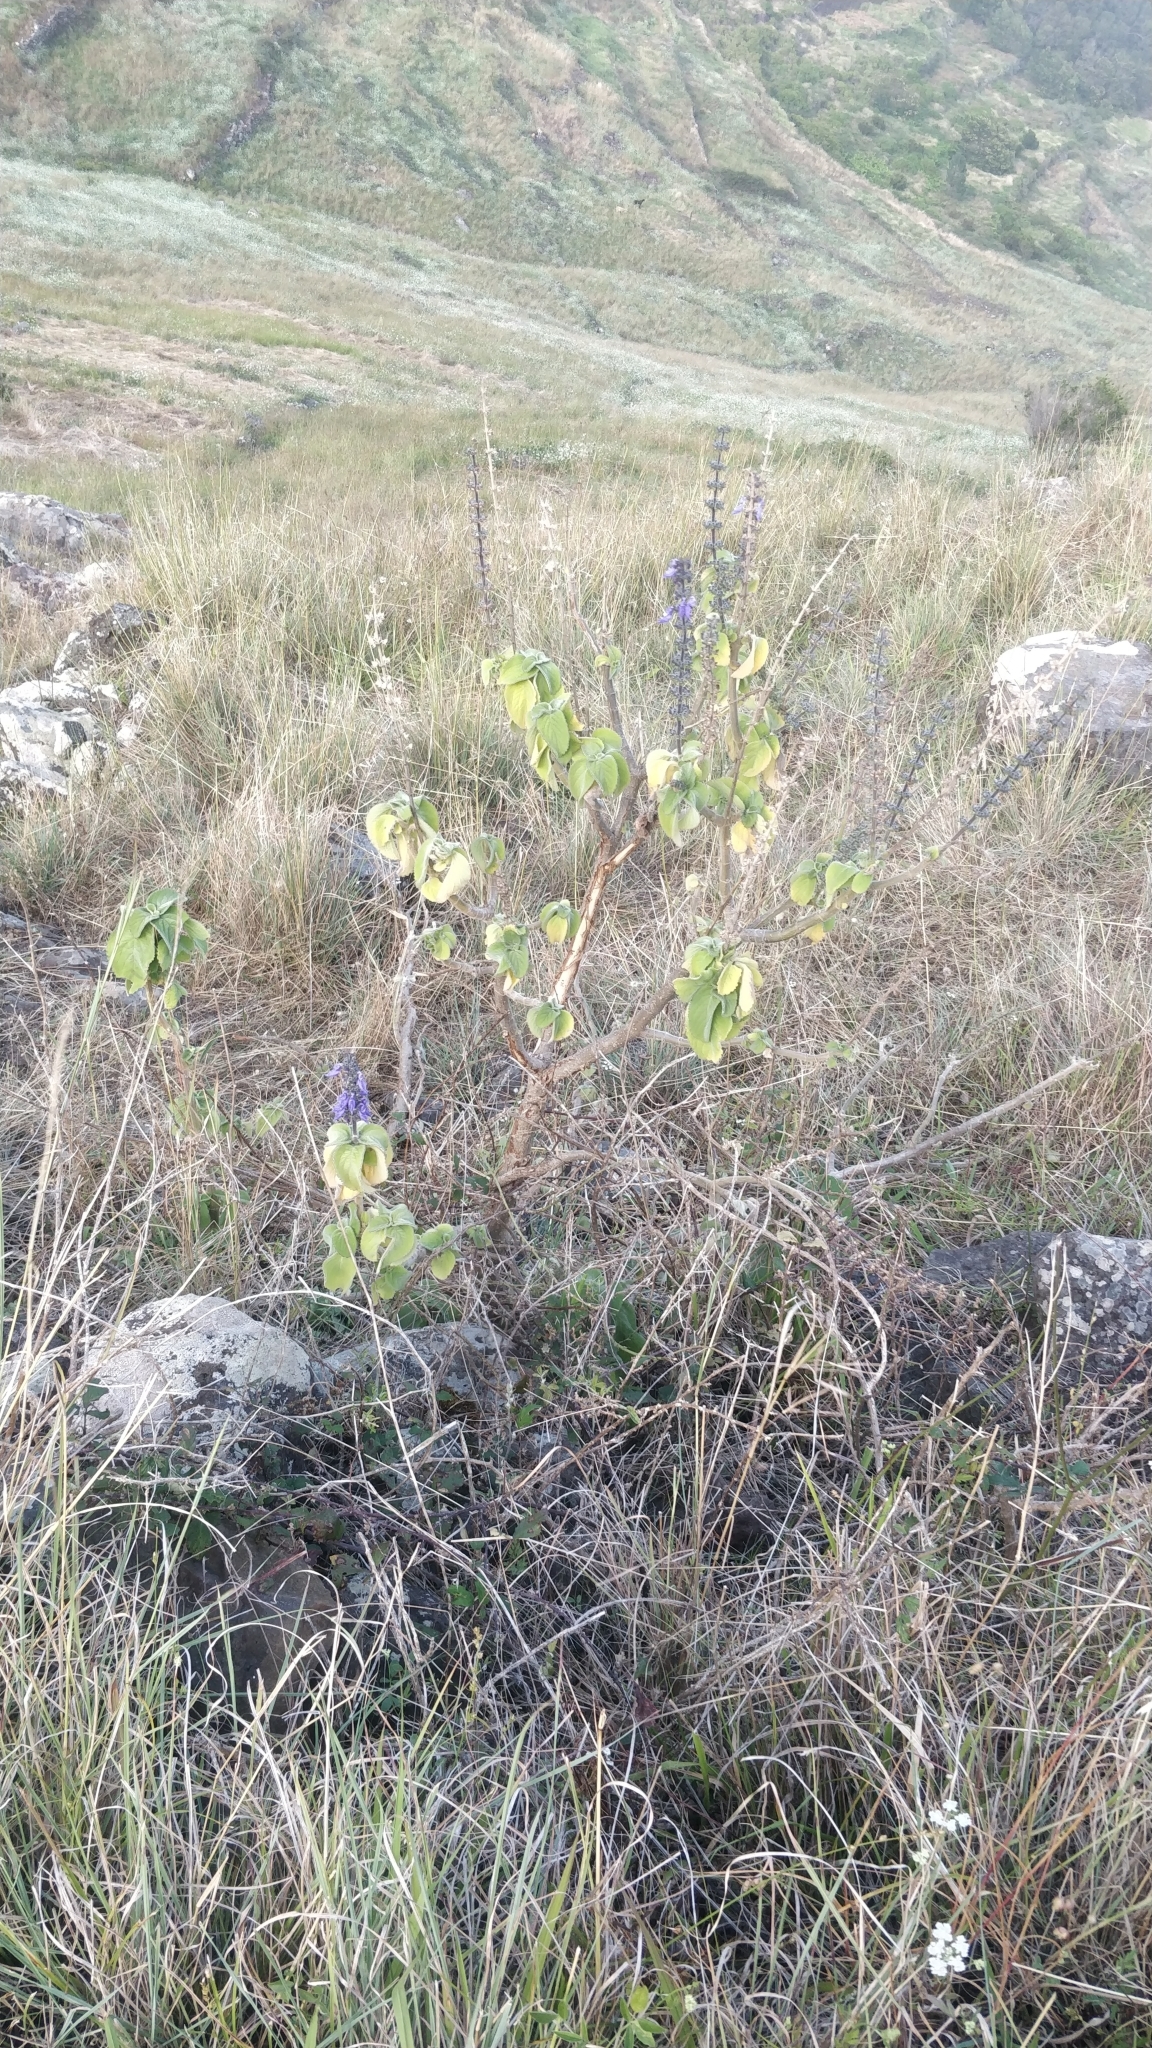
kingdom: Plantae
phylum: Tracheophyta
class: Magnoliopsida
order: Lamiales
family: Lamiaceae
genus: Coleus
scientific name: Coleus barbatus
